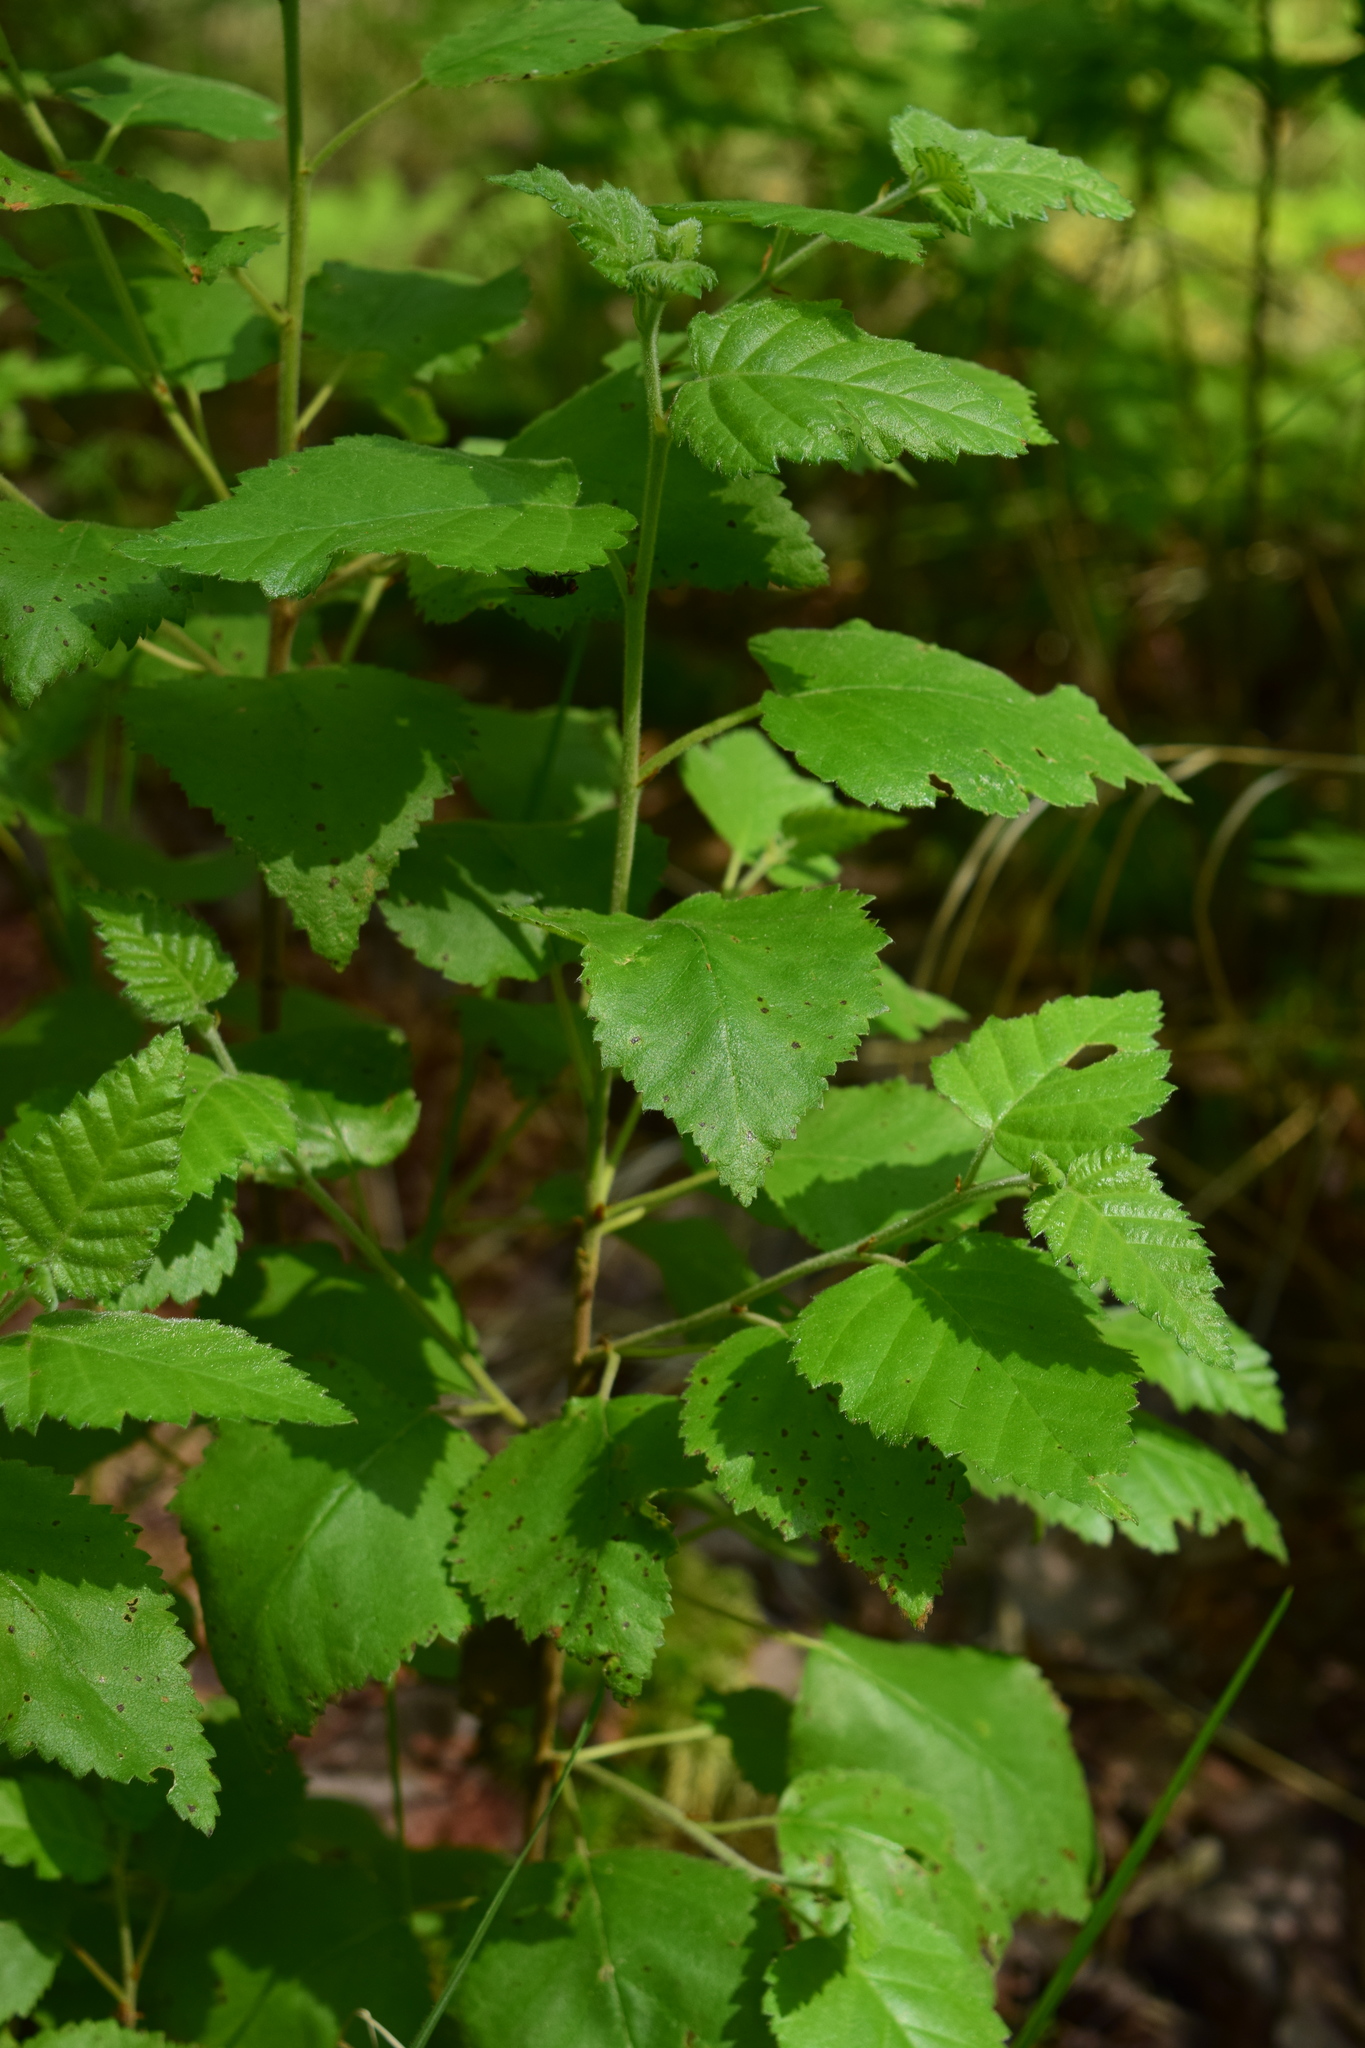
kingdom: Plantae
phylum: Tracheophyta
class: Magnoliopsida
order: Fagales
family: Betulaceae
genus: Betula
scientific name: Betula pubescens
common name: Downy birch
